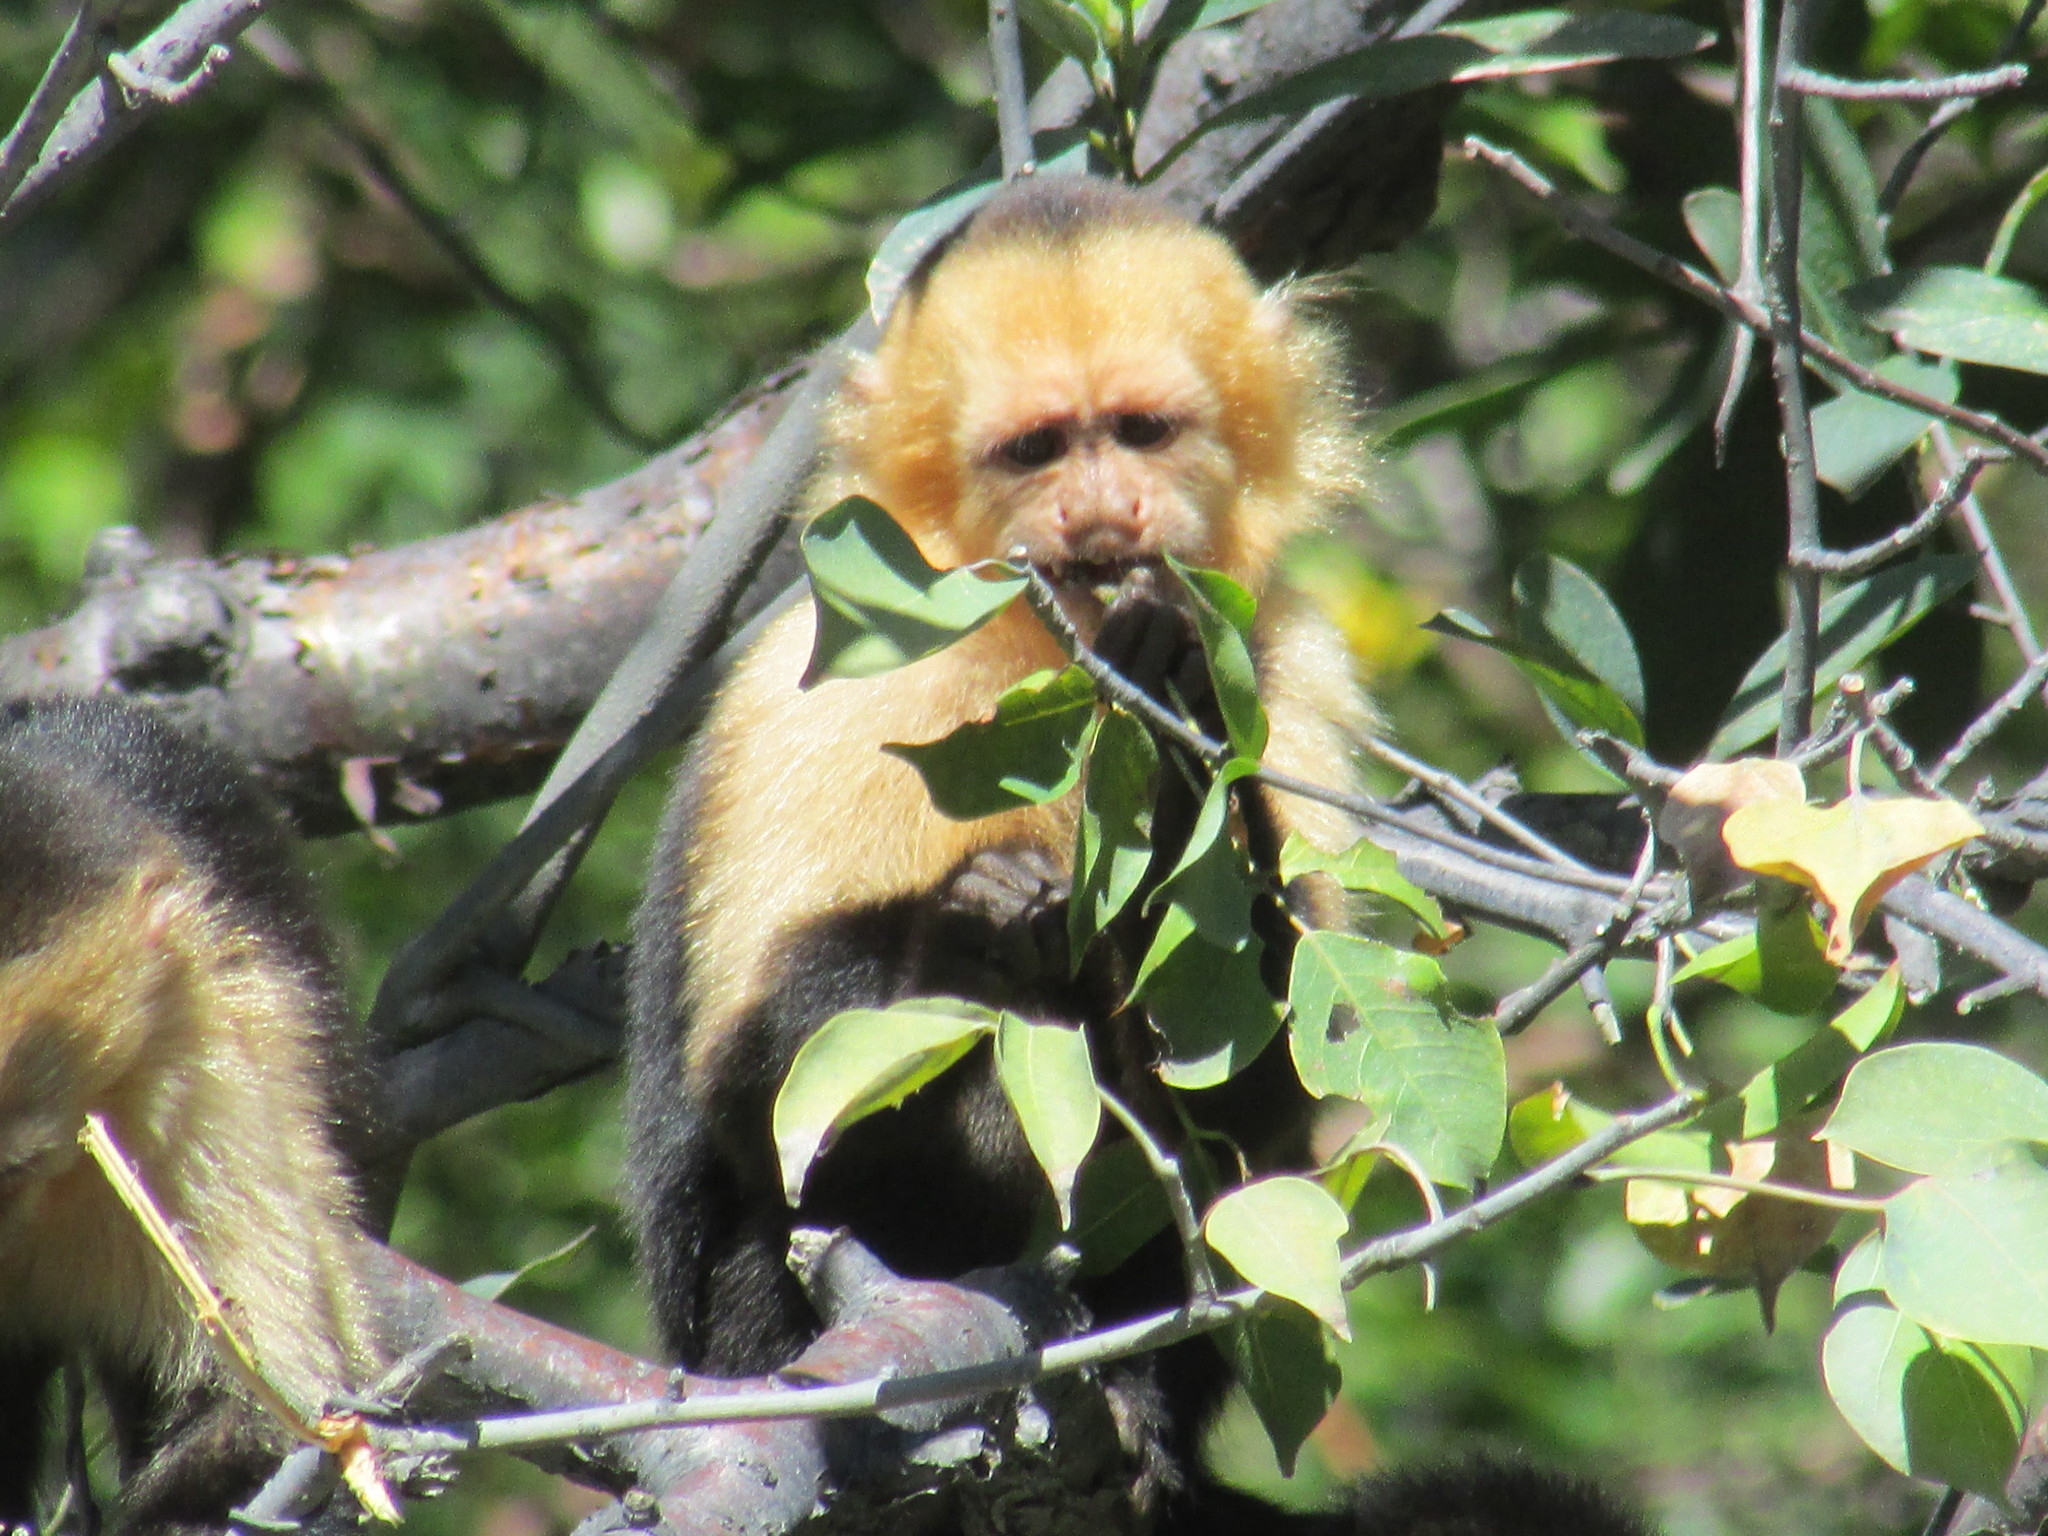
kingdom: Animalia
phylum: Chordata
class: Mammalia
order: Primates
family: Cebidae
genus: Cebus
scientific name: Cebus imitator
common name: Panamanian white-faced capuchin
